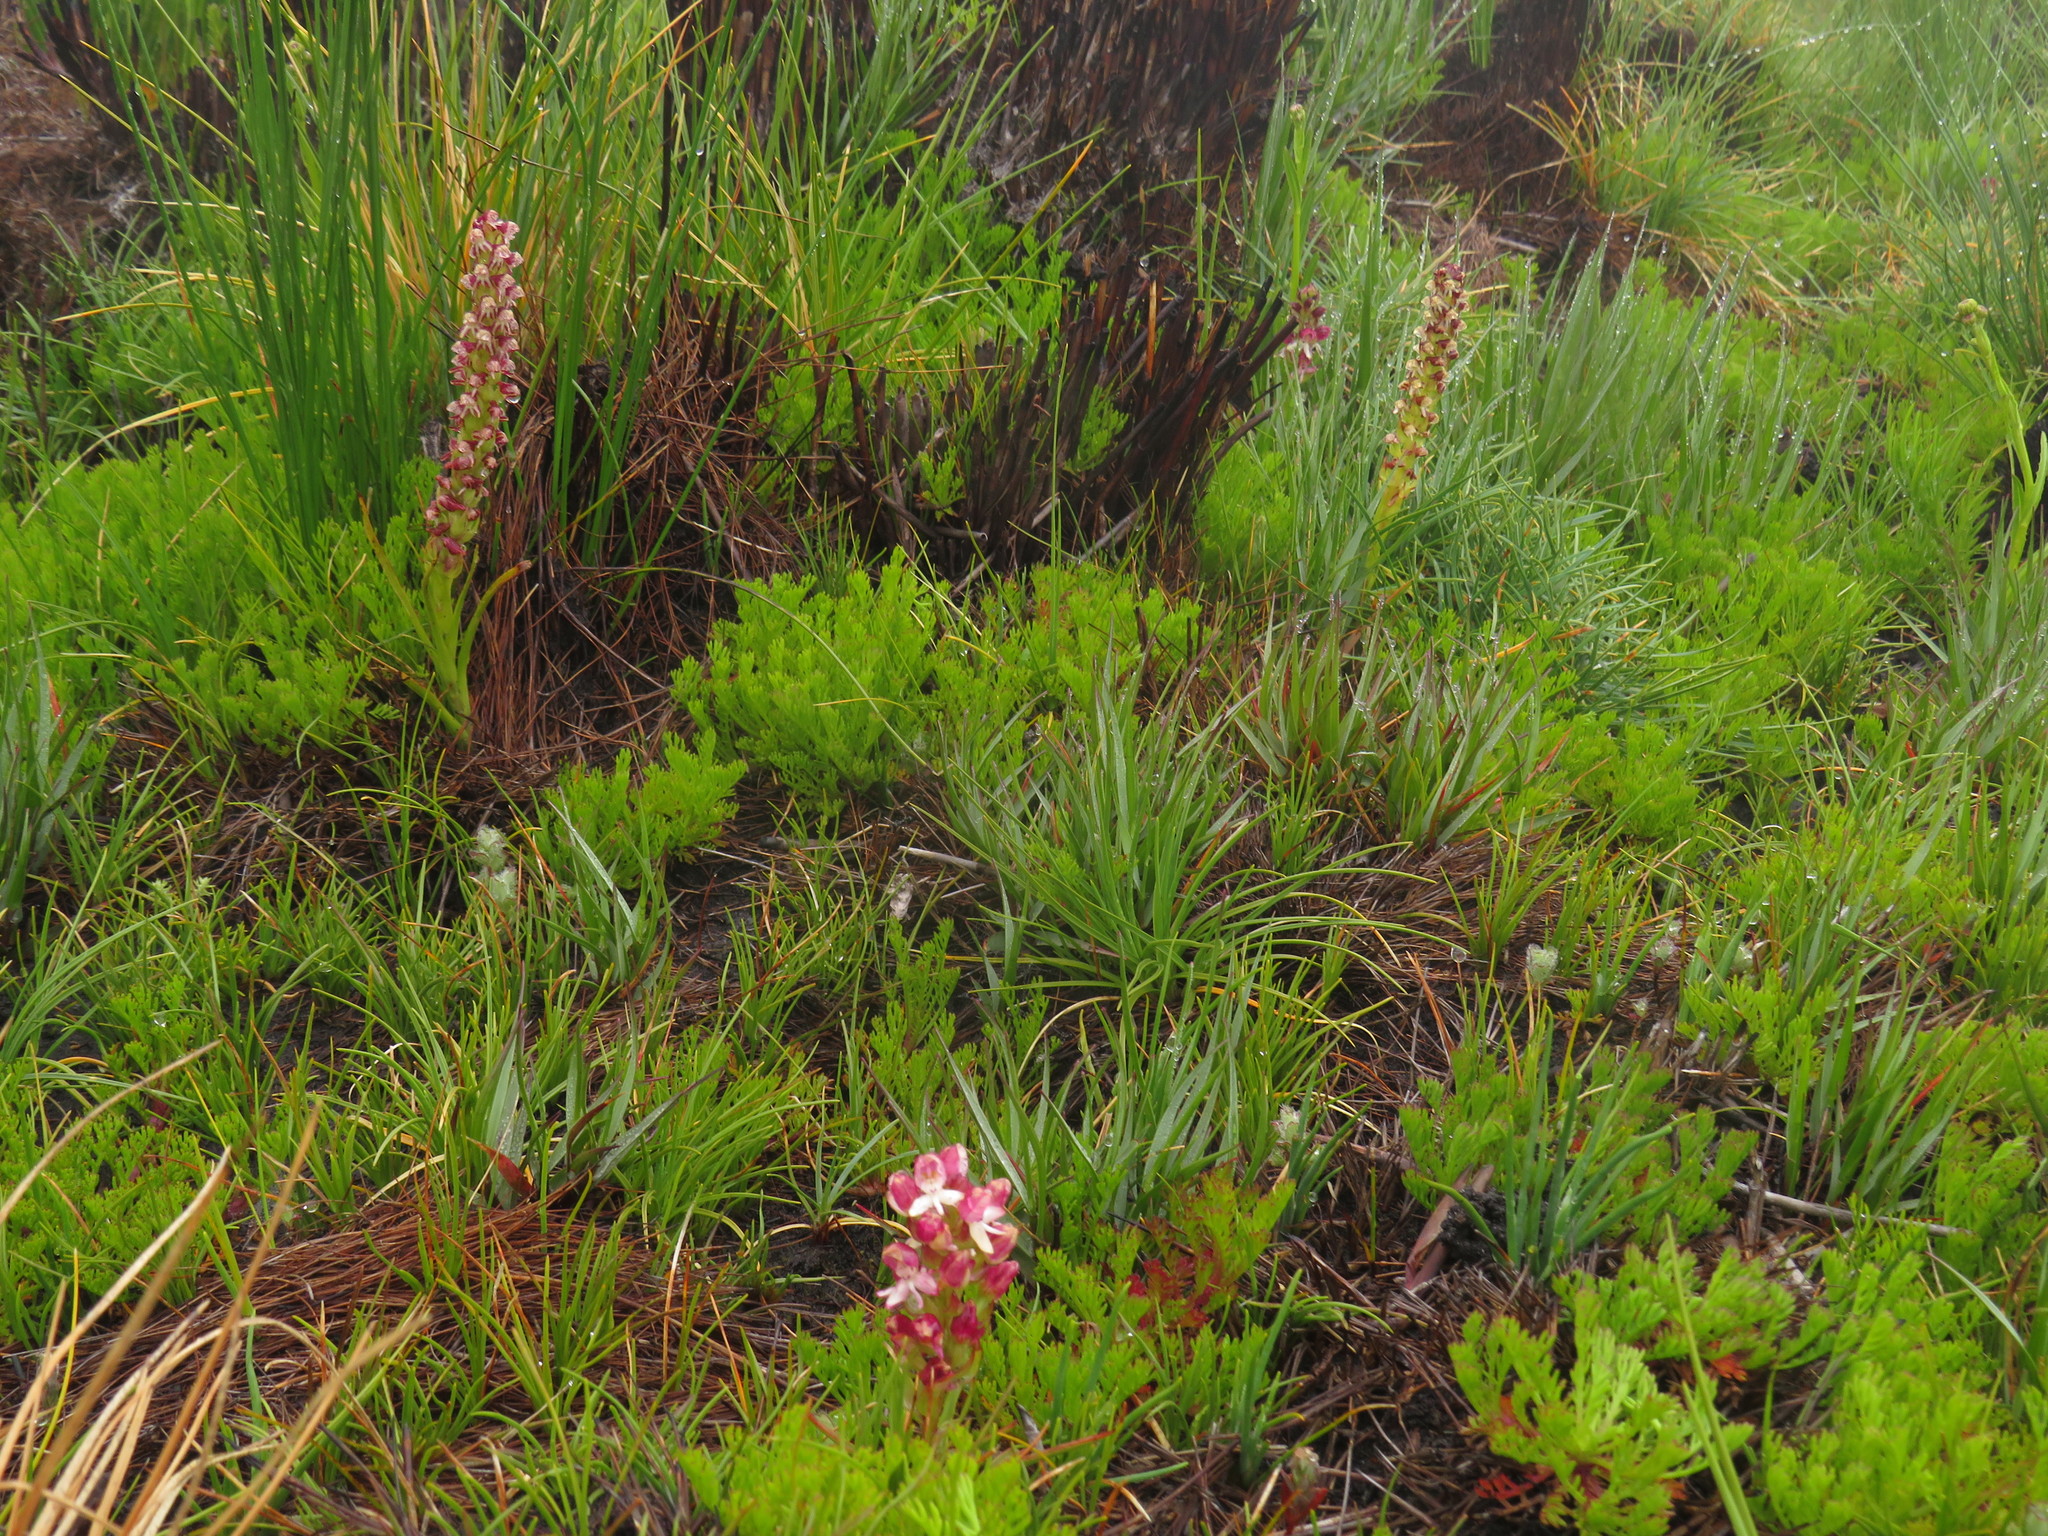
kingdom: Plantae
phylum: Tracheophyta
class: Liliopsida
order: Asparagales
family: Orchidaceae
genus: Disa
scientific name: Disa
